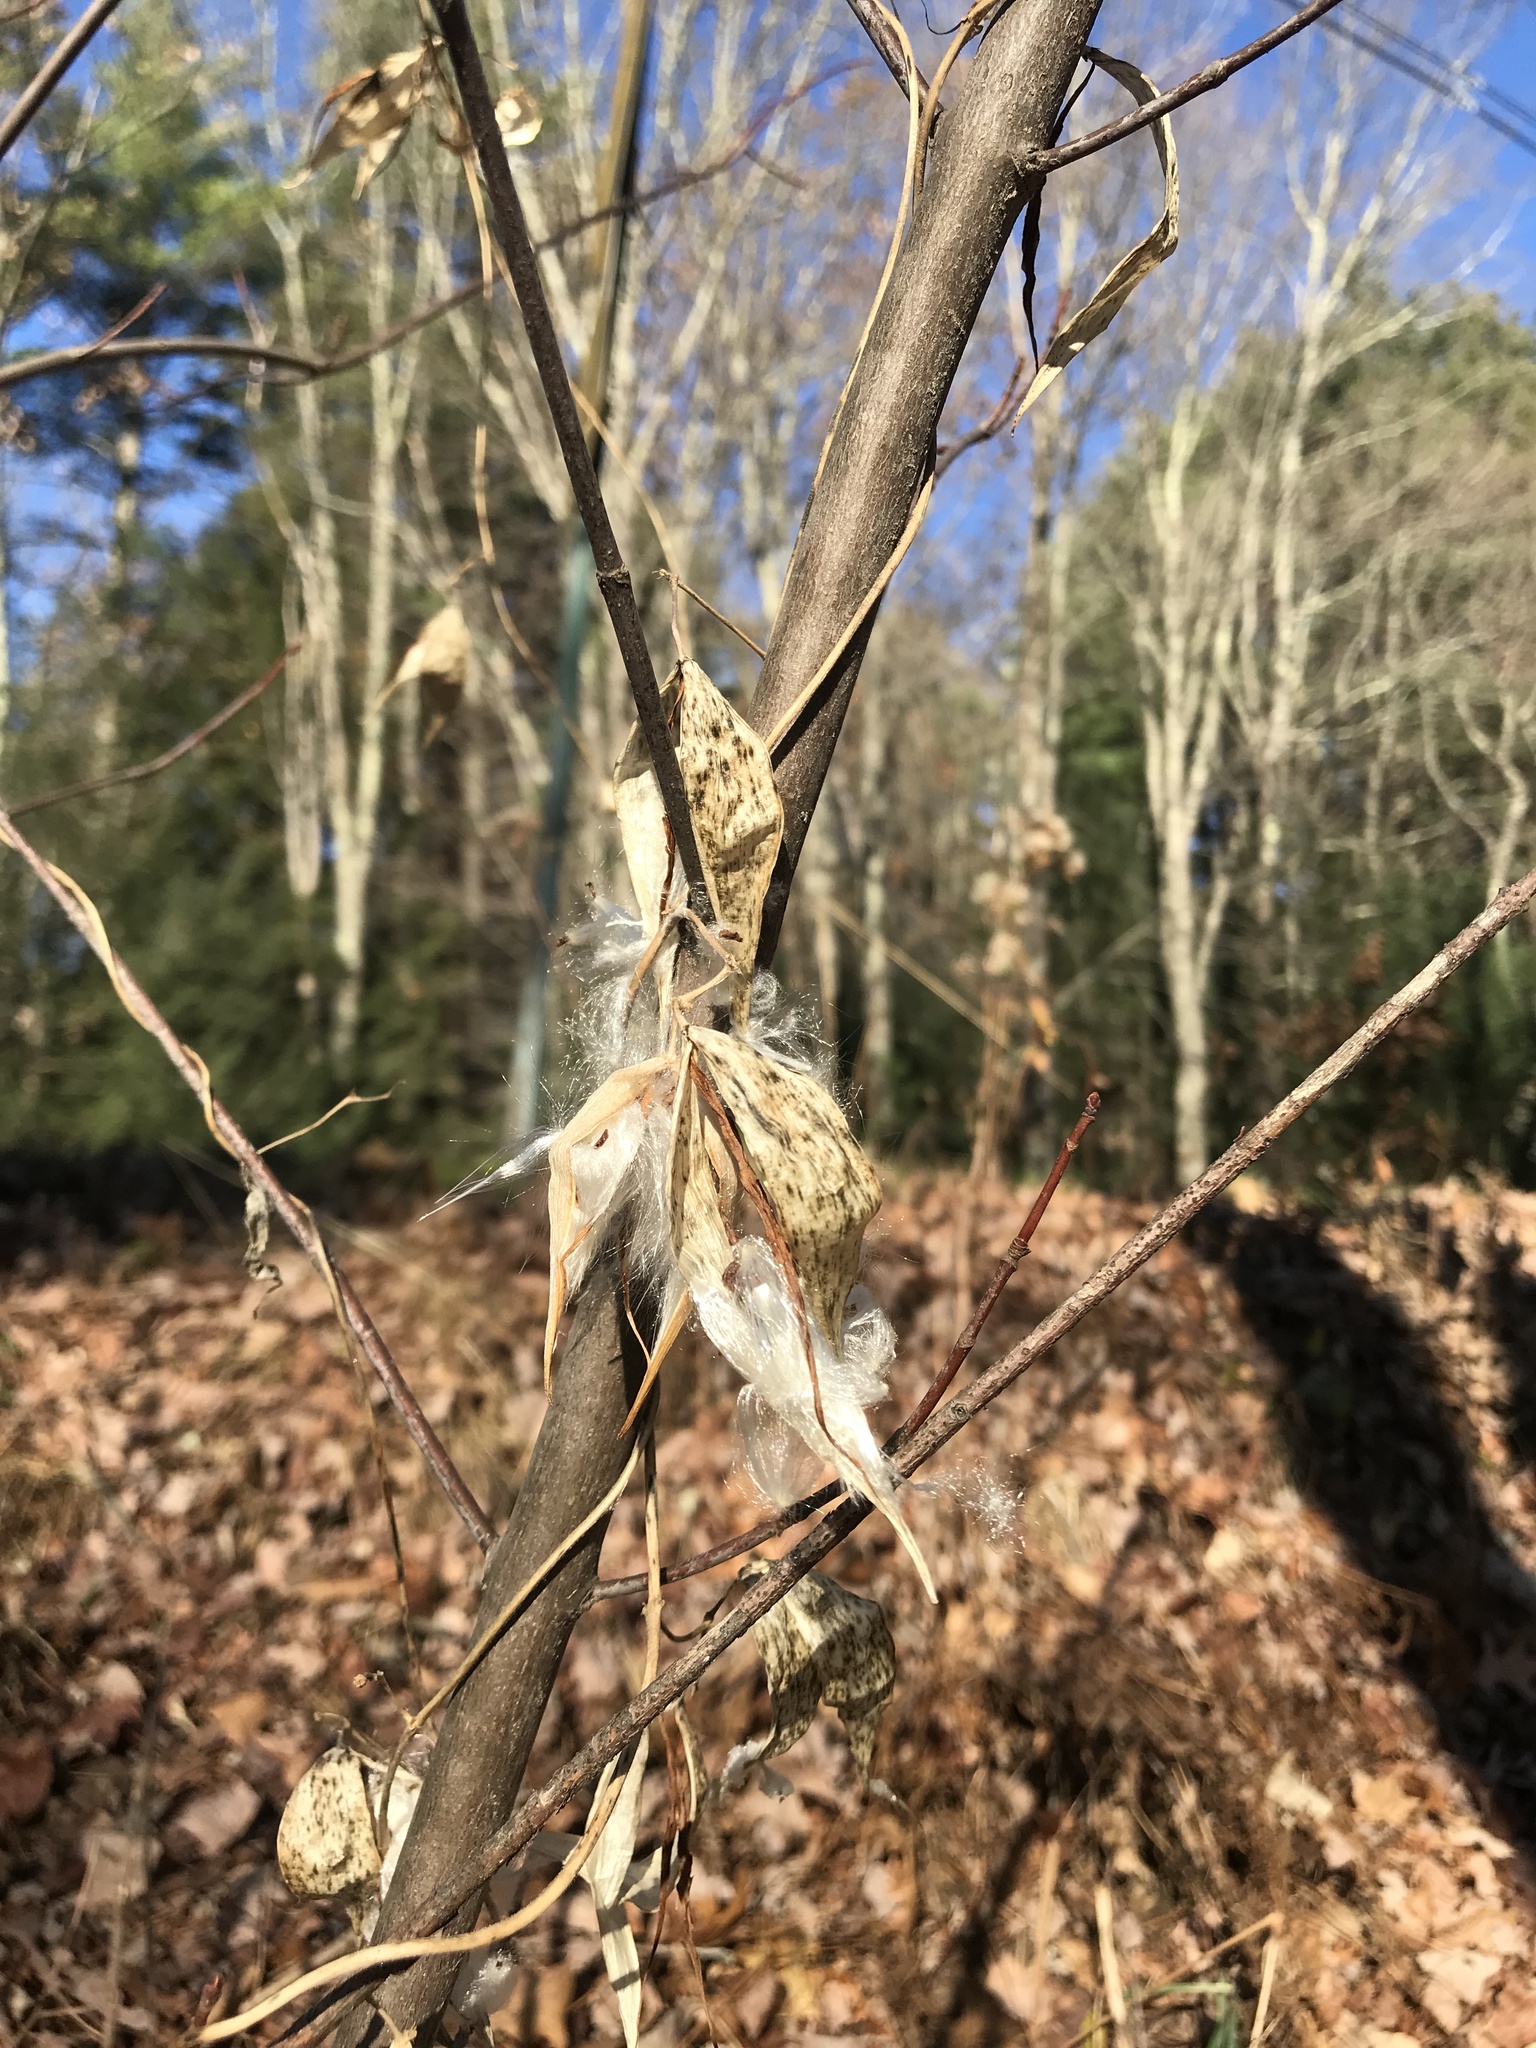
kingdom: Plantae
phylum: Tracheophyta
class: Magnoliopsida
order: Gentianales
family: Apocynaceae
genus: Vincetoxicum
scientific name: Vincetoxicum nigrum
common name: Black swallow-wort
